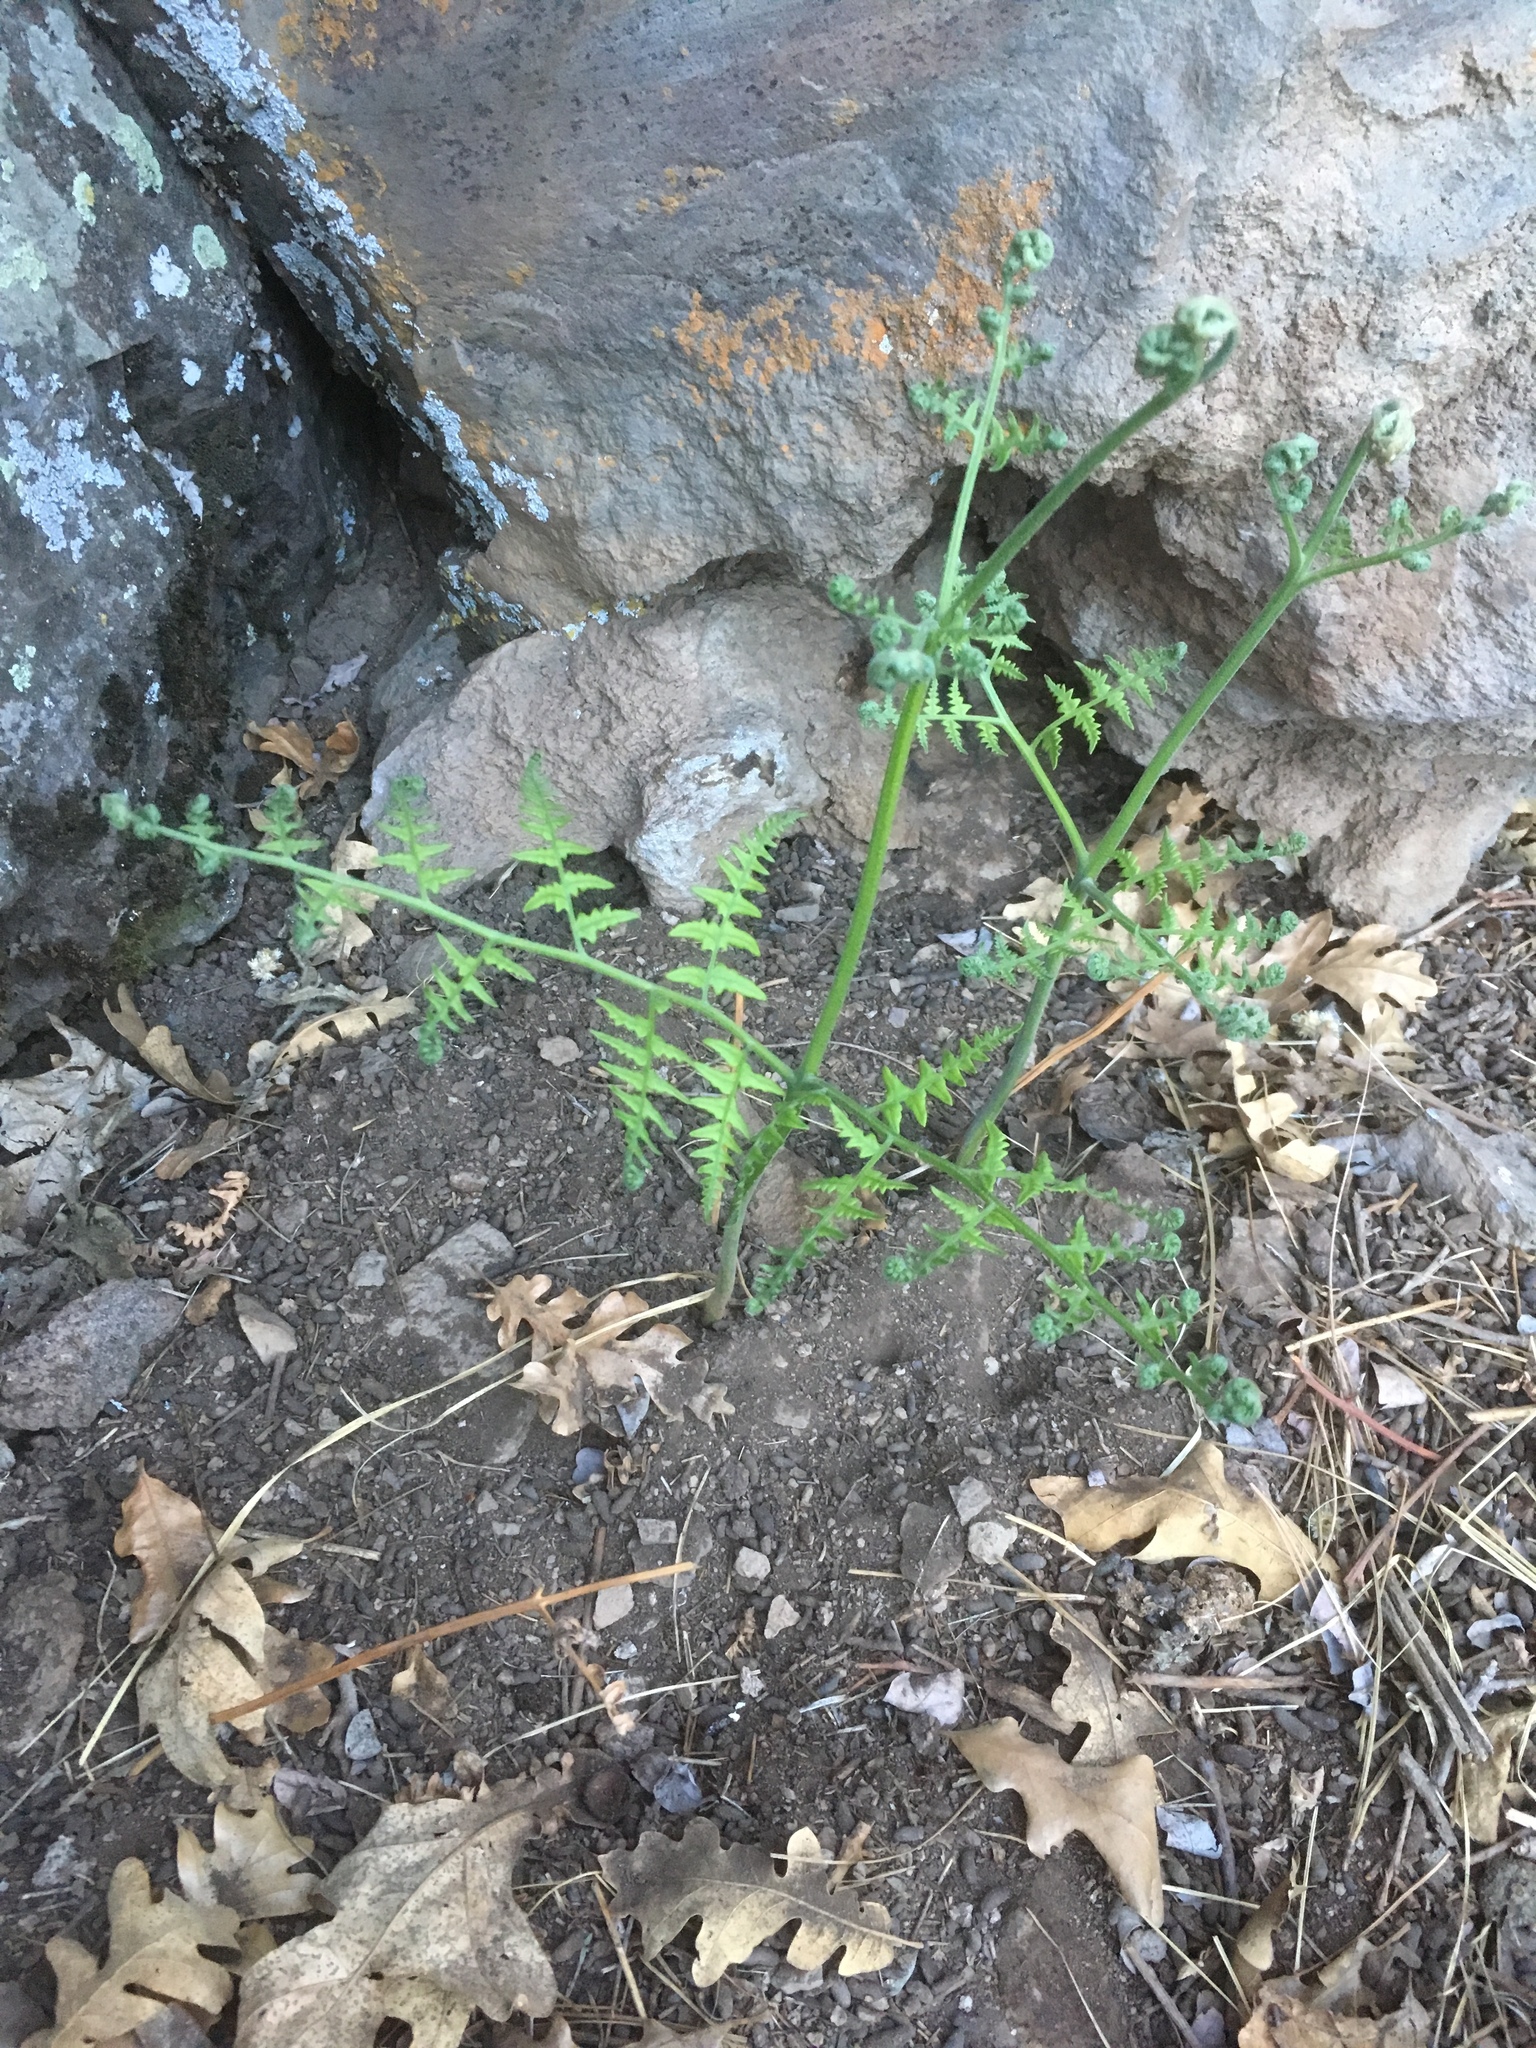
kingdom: Plantae
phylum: Tracheophyta
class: Polypodiopsida
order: Polypodiales
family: Dennstaedtiaceae
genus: Pteridium
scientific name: Pteridium aquilinum
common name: Bracken
